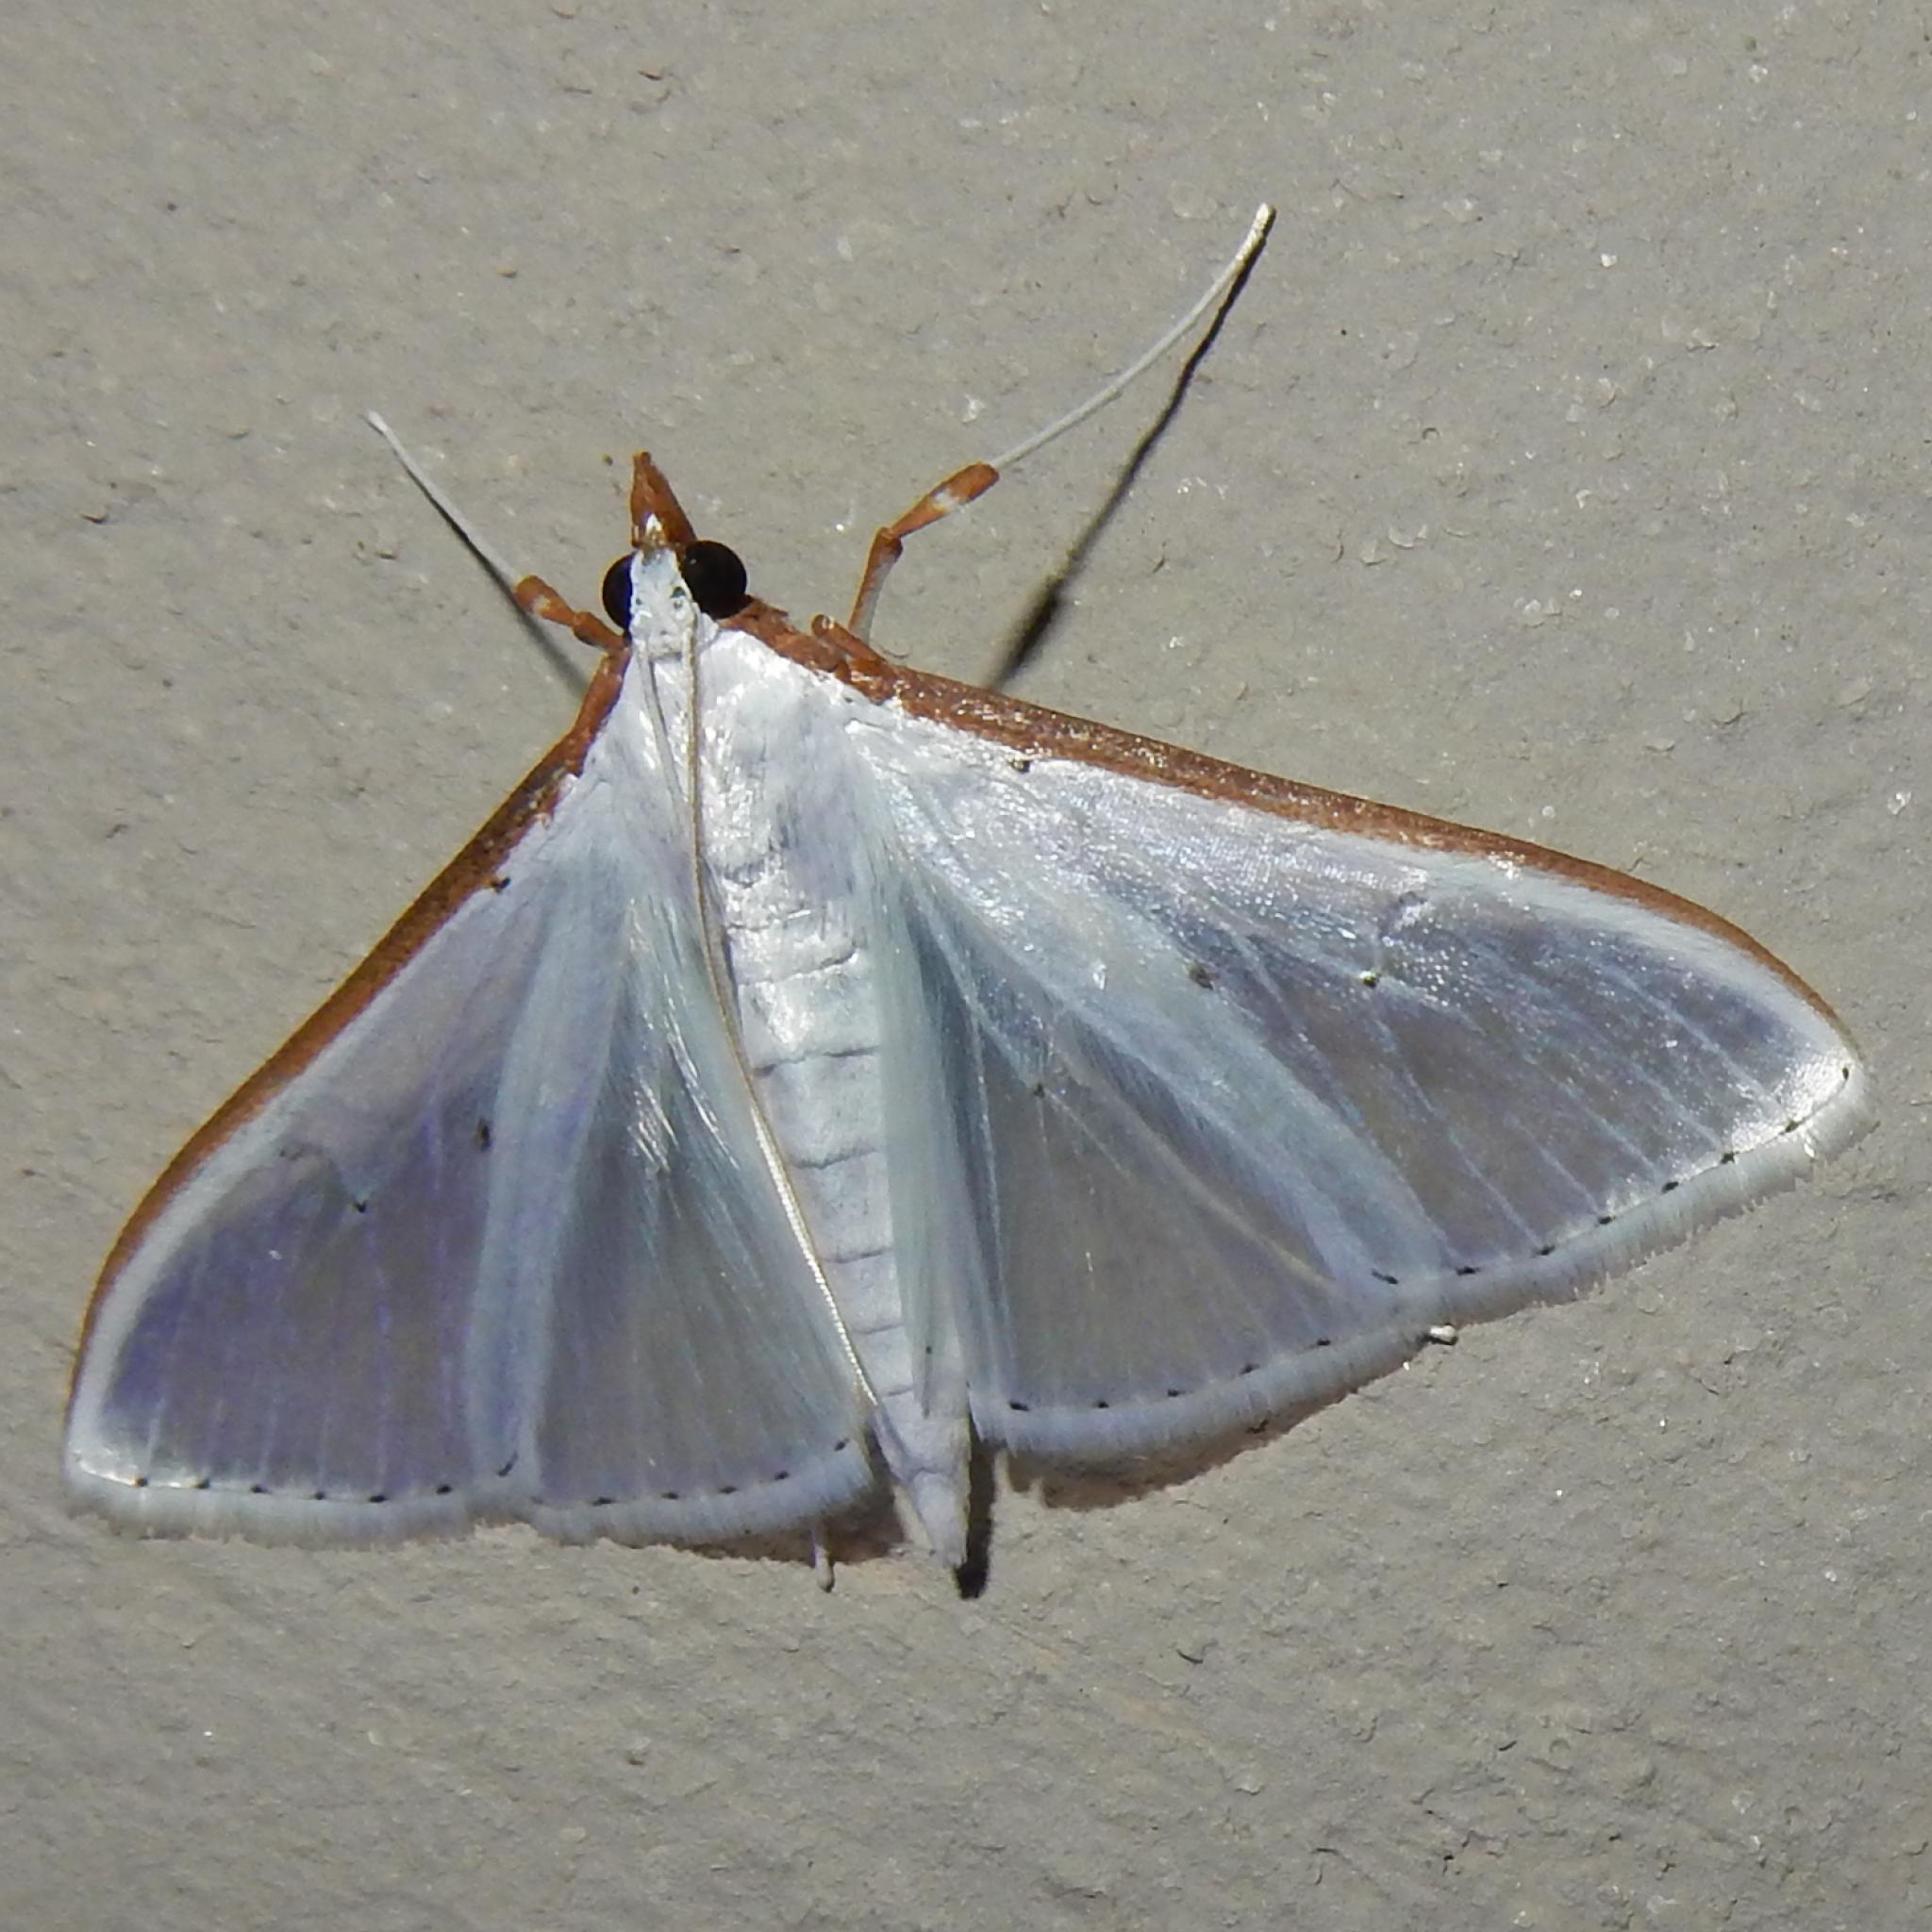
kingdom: Animalia
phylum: Arthropoda
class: Insecta
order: Lepidoptera
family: Crambidae
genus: Palpita
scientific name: Palpita vitrealis
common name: Olive-tree pearl
